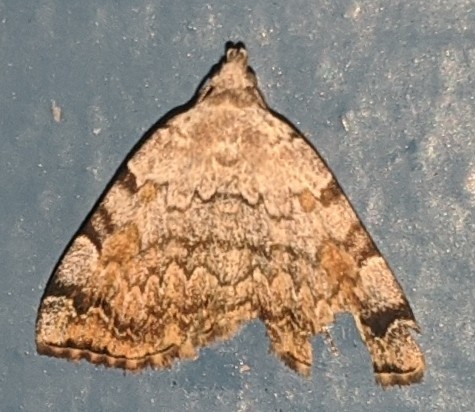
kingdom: Animalia
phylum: Arthropoda
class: Insecta
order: Lepidoptera
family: Erebidae
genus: Idia
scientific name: Idia americalis
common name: American idia moth
